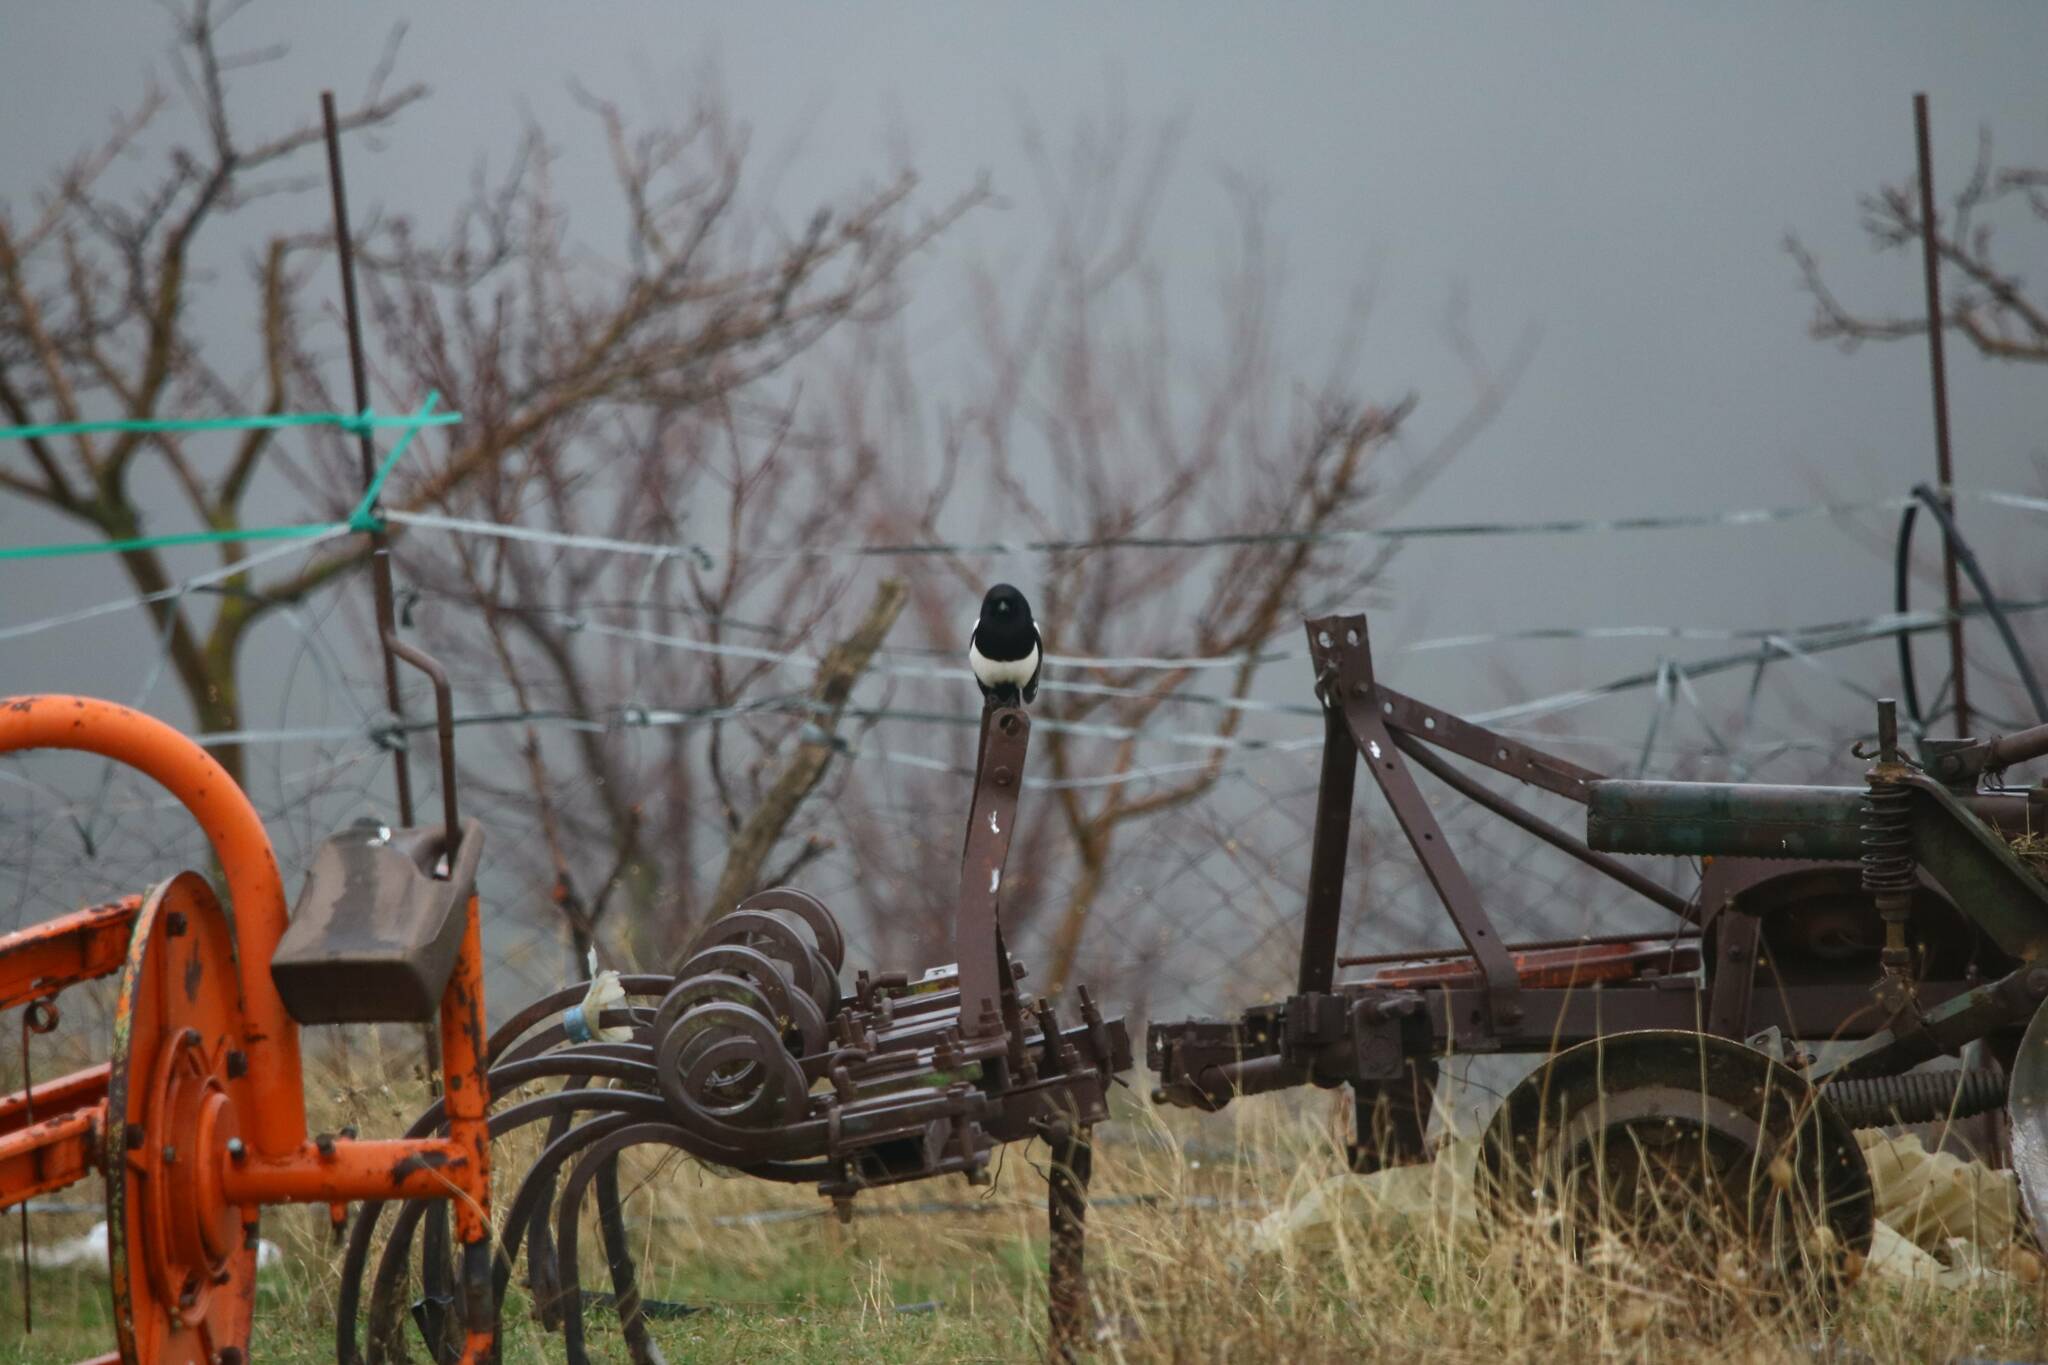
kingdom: Animalia
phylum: Chordata
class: Aves
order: Passeriformes
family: Corvidae
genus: Pica
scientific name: Pica mauritanica
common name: Maghreb magpie
